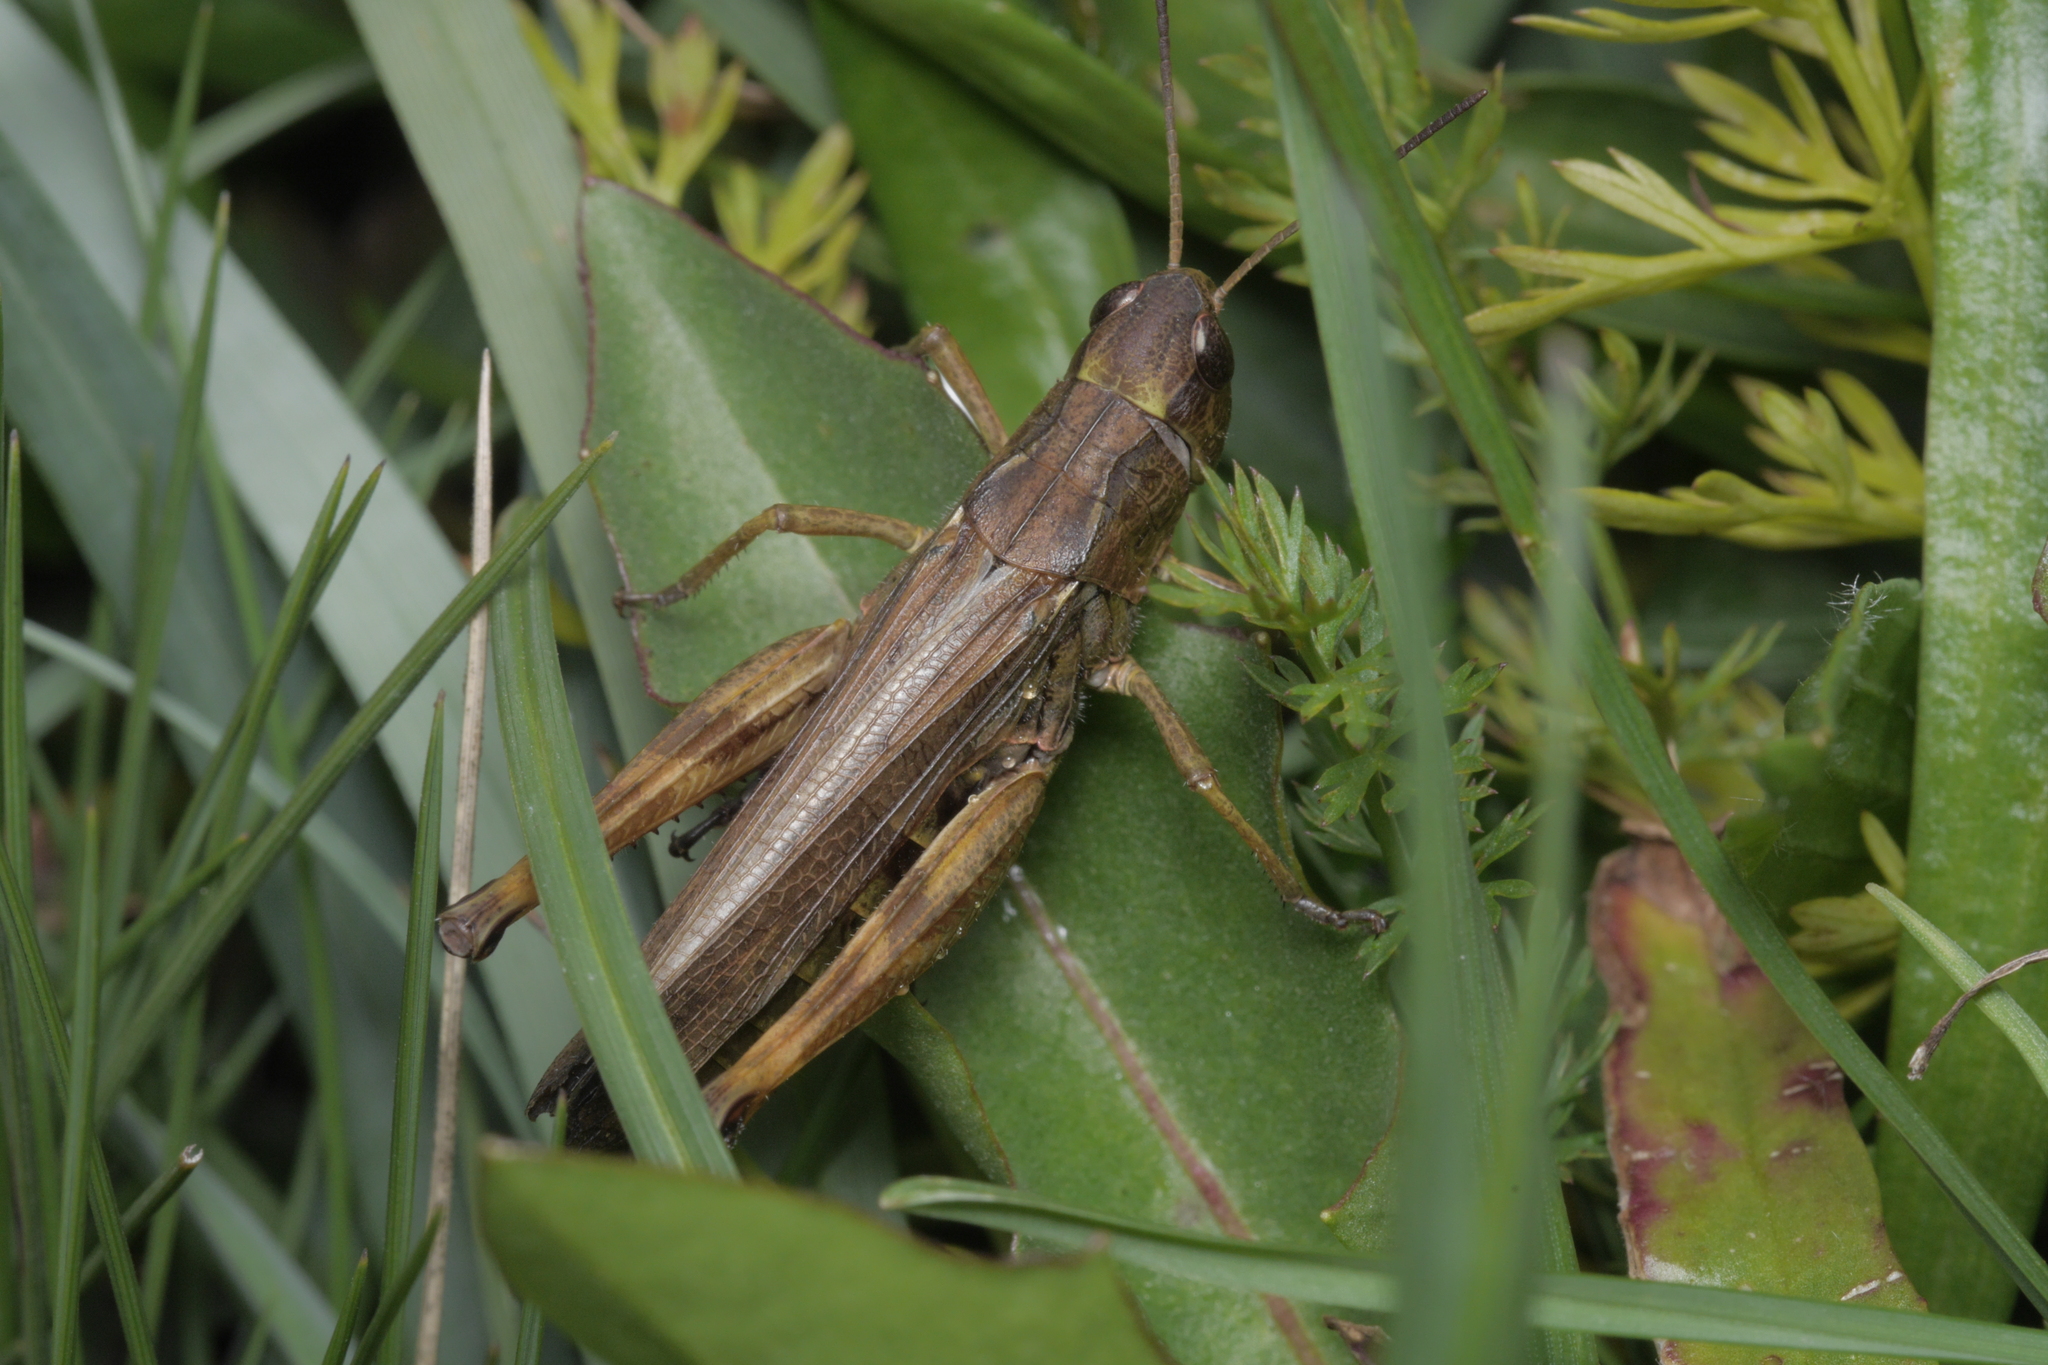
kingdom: Animalia
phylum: Arthropoda
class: Insecta
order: Orthoptera
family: Acrididae
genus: Stauroderus
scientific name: Stauroderus scalaris
